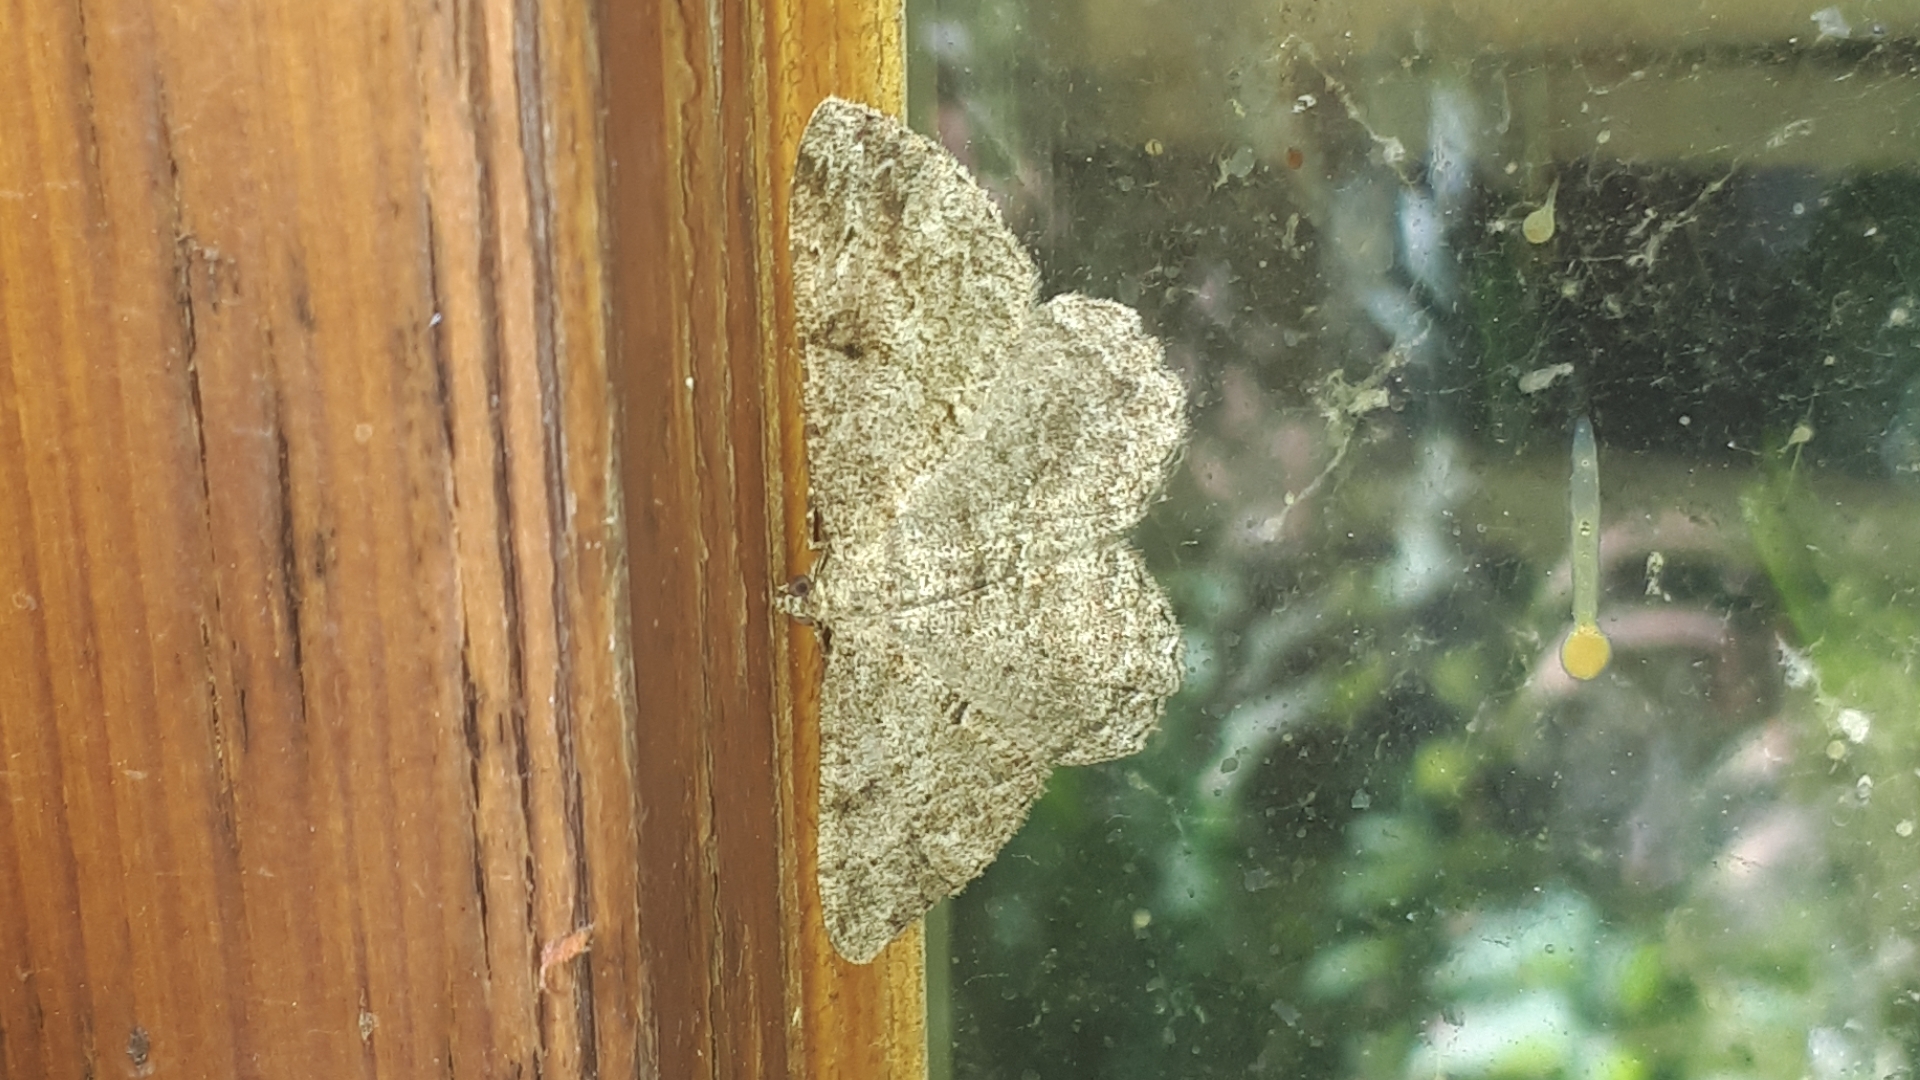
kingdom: Animalia
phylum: Arthropoda
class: Insecta
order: Lepidoptera
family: Geometridae
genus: Peribatodes
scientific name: Peribatodes rhomboidaria
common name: Willow beauty
